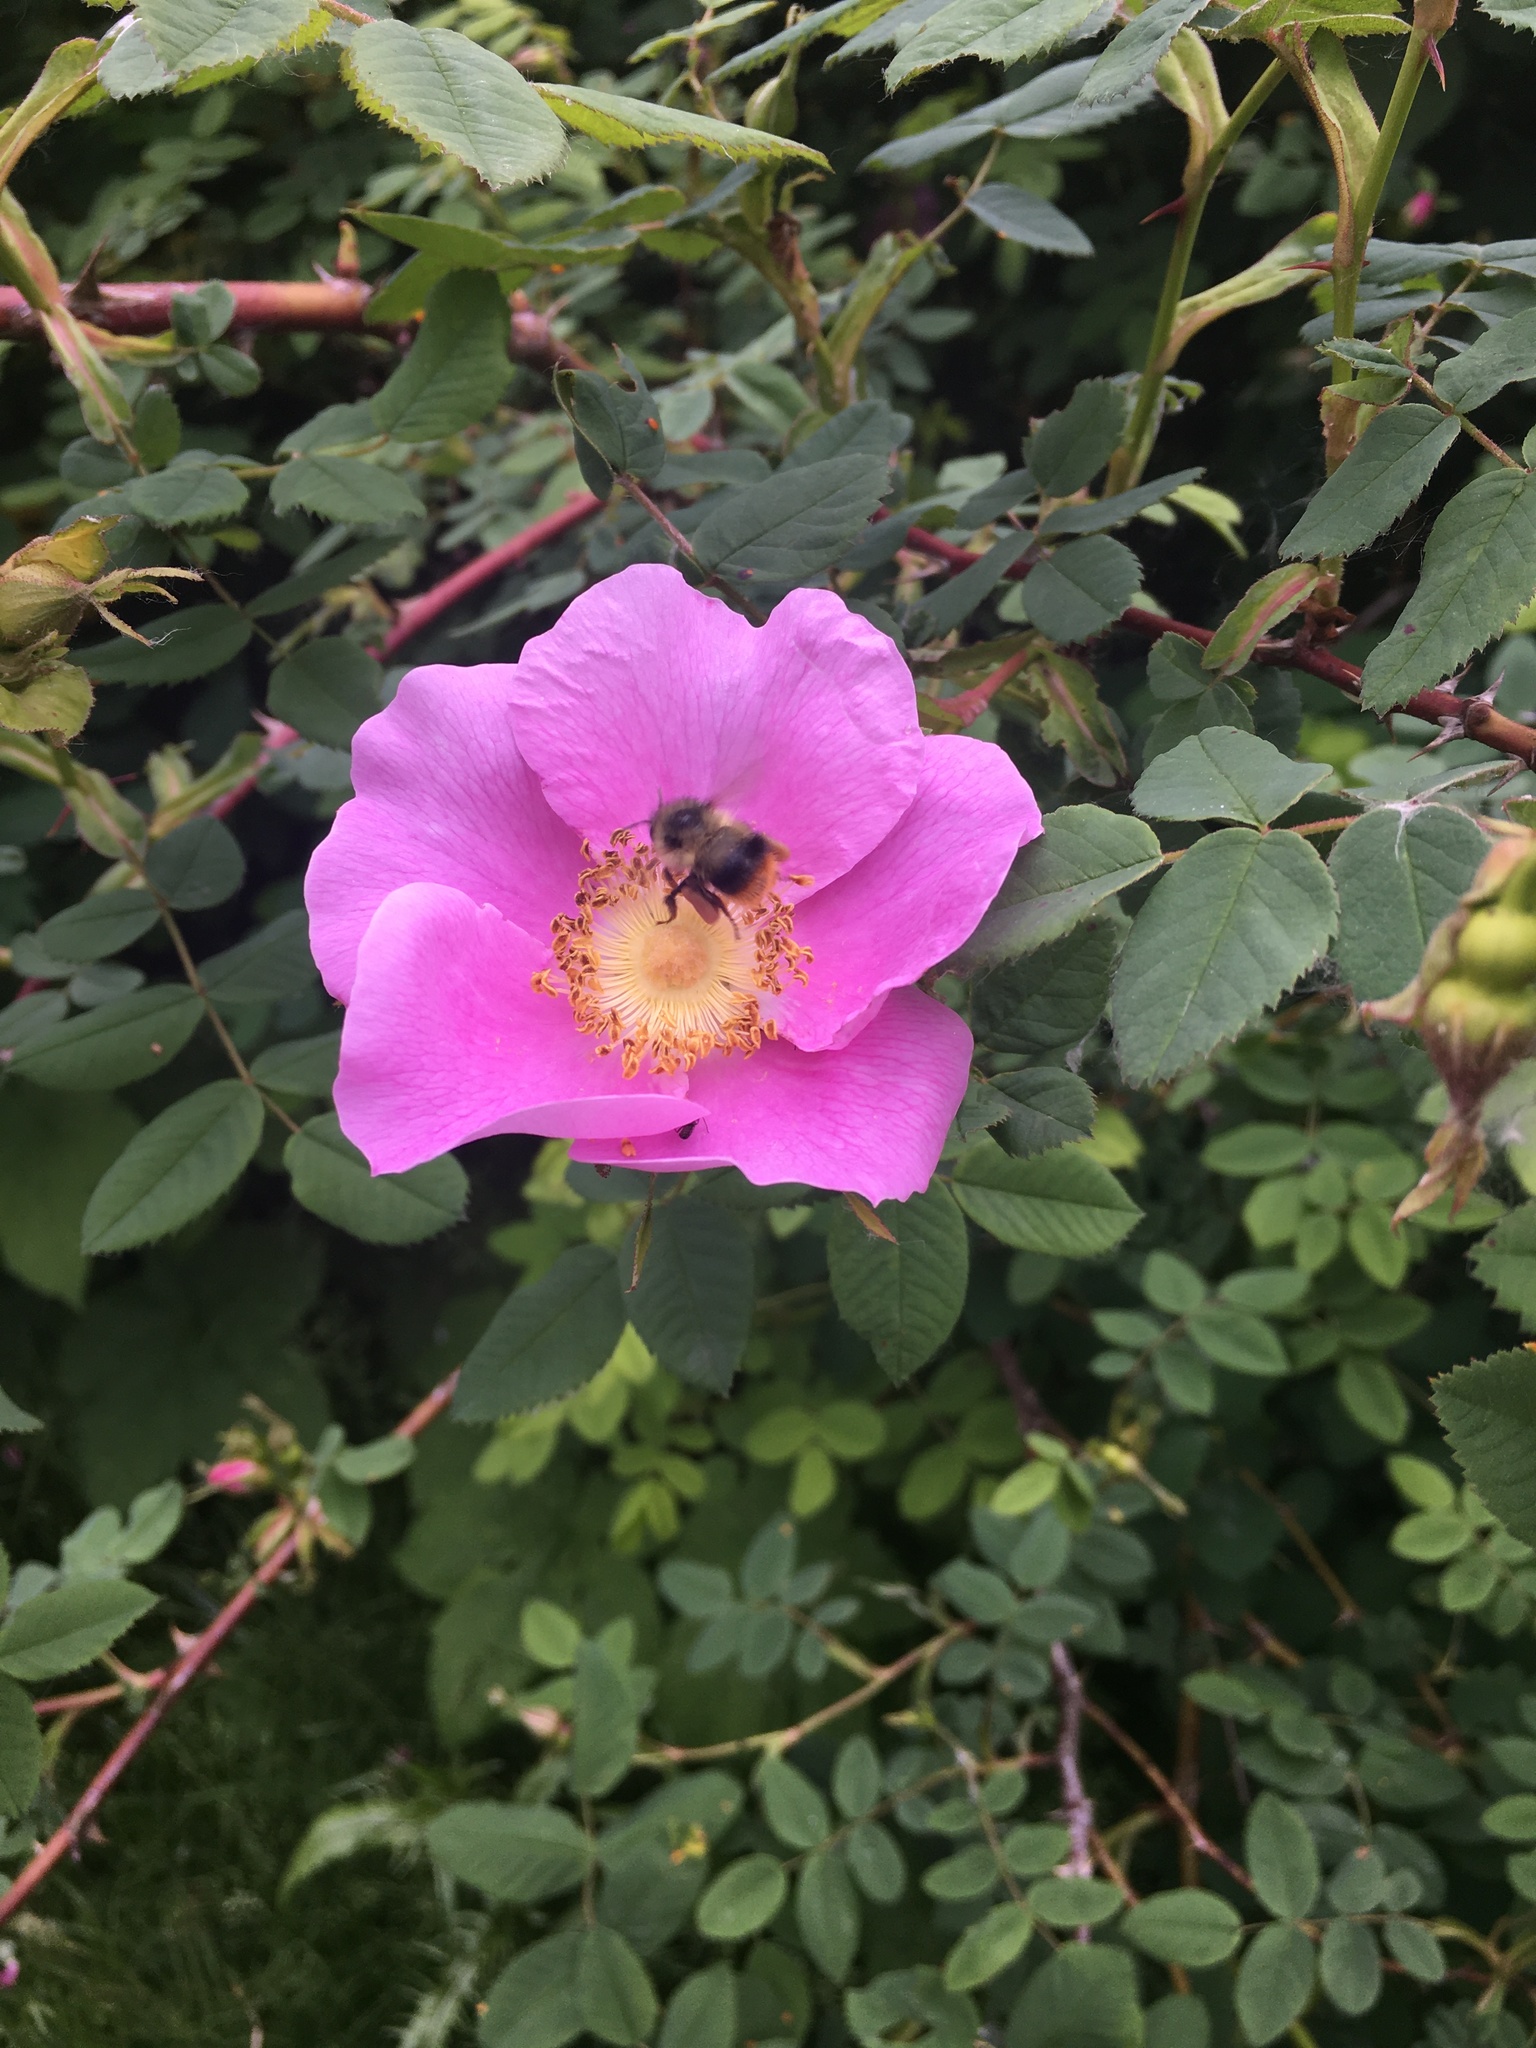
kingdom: Animalia
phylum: Arthropoda
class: Insecta
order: Hymenoptera
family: Apidae
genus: Bombus
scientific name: Bombus mixtus
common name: Fuzzy-horned bumble bee
